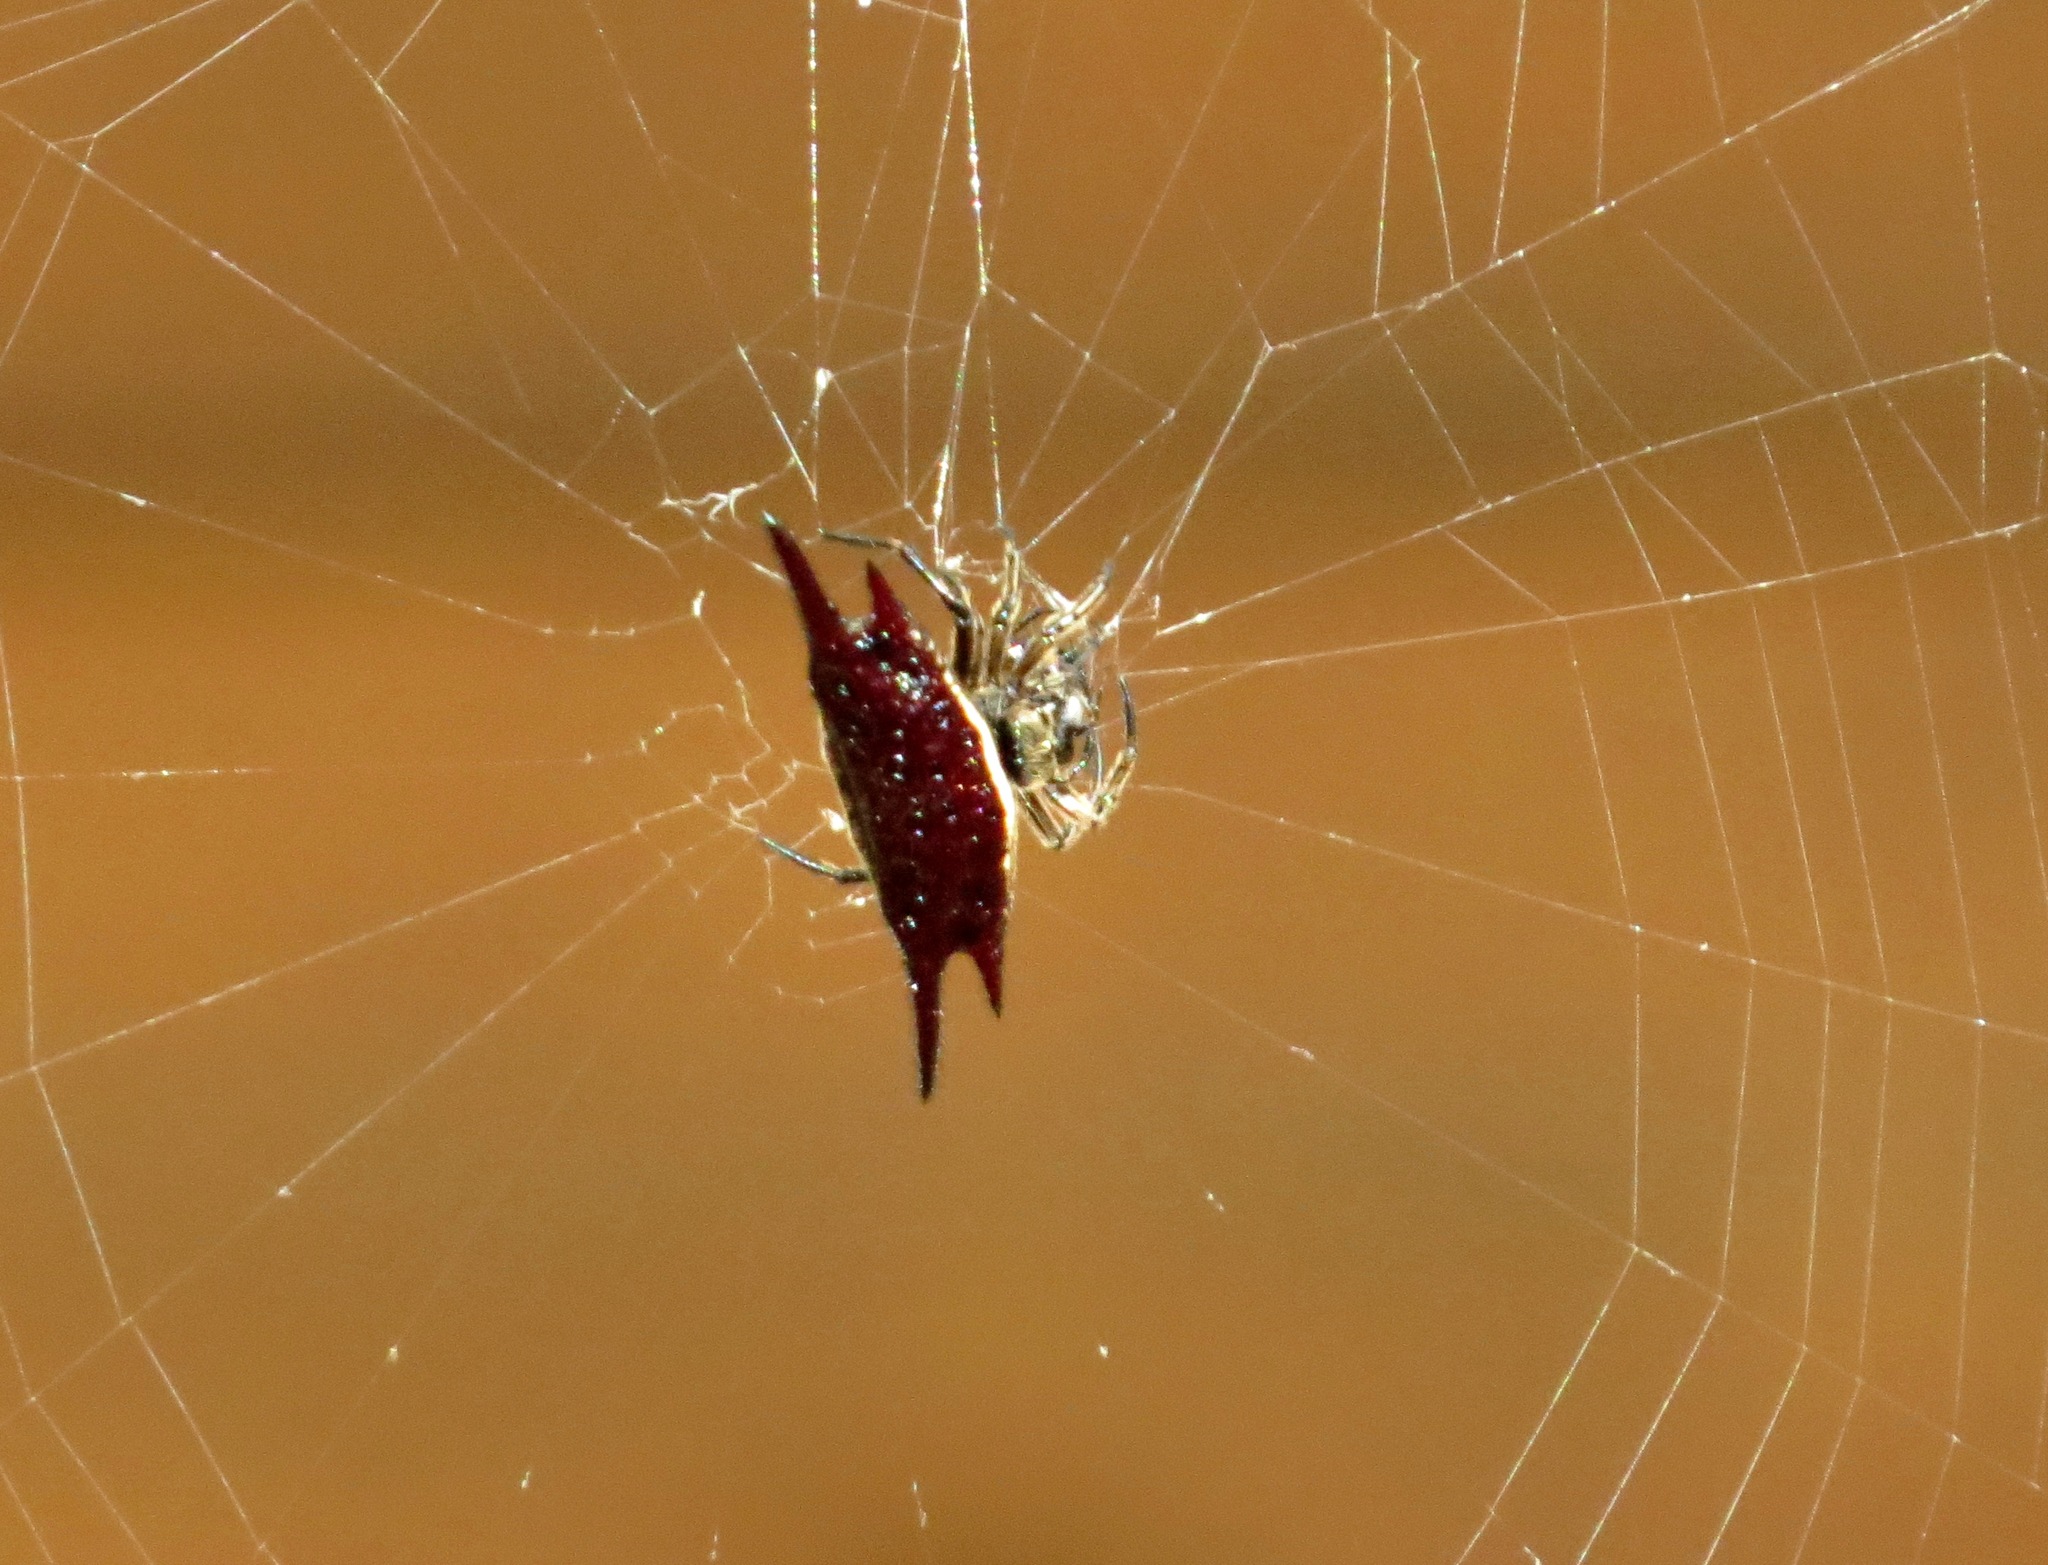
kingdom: Animalia
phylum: Arthropoda
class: Arachnida
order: Araneae
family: Araneidae
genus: Gasteracantha
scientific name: Gasteracantha mengei
